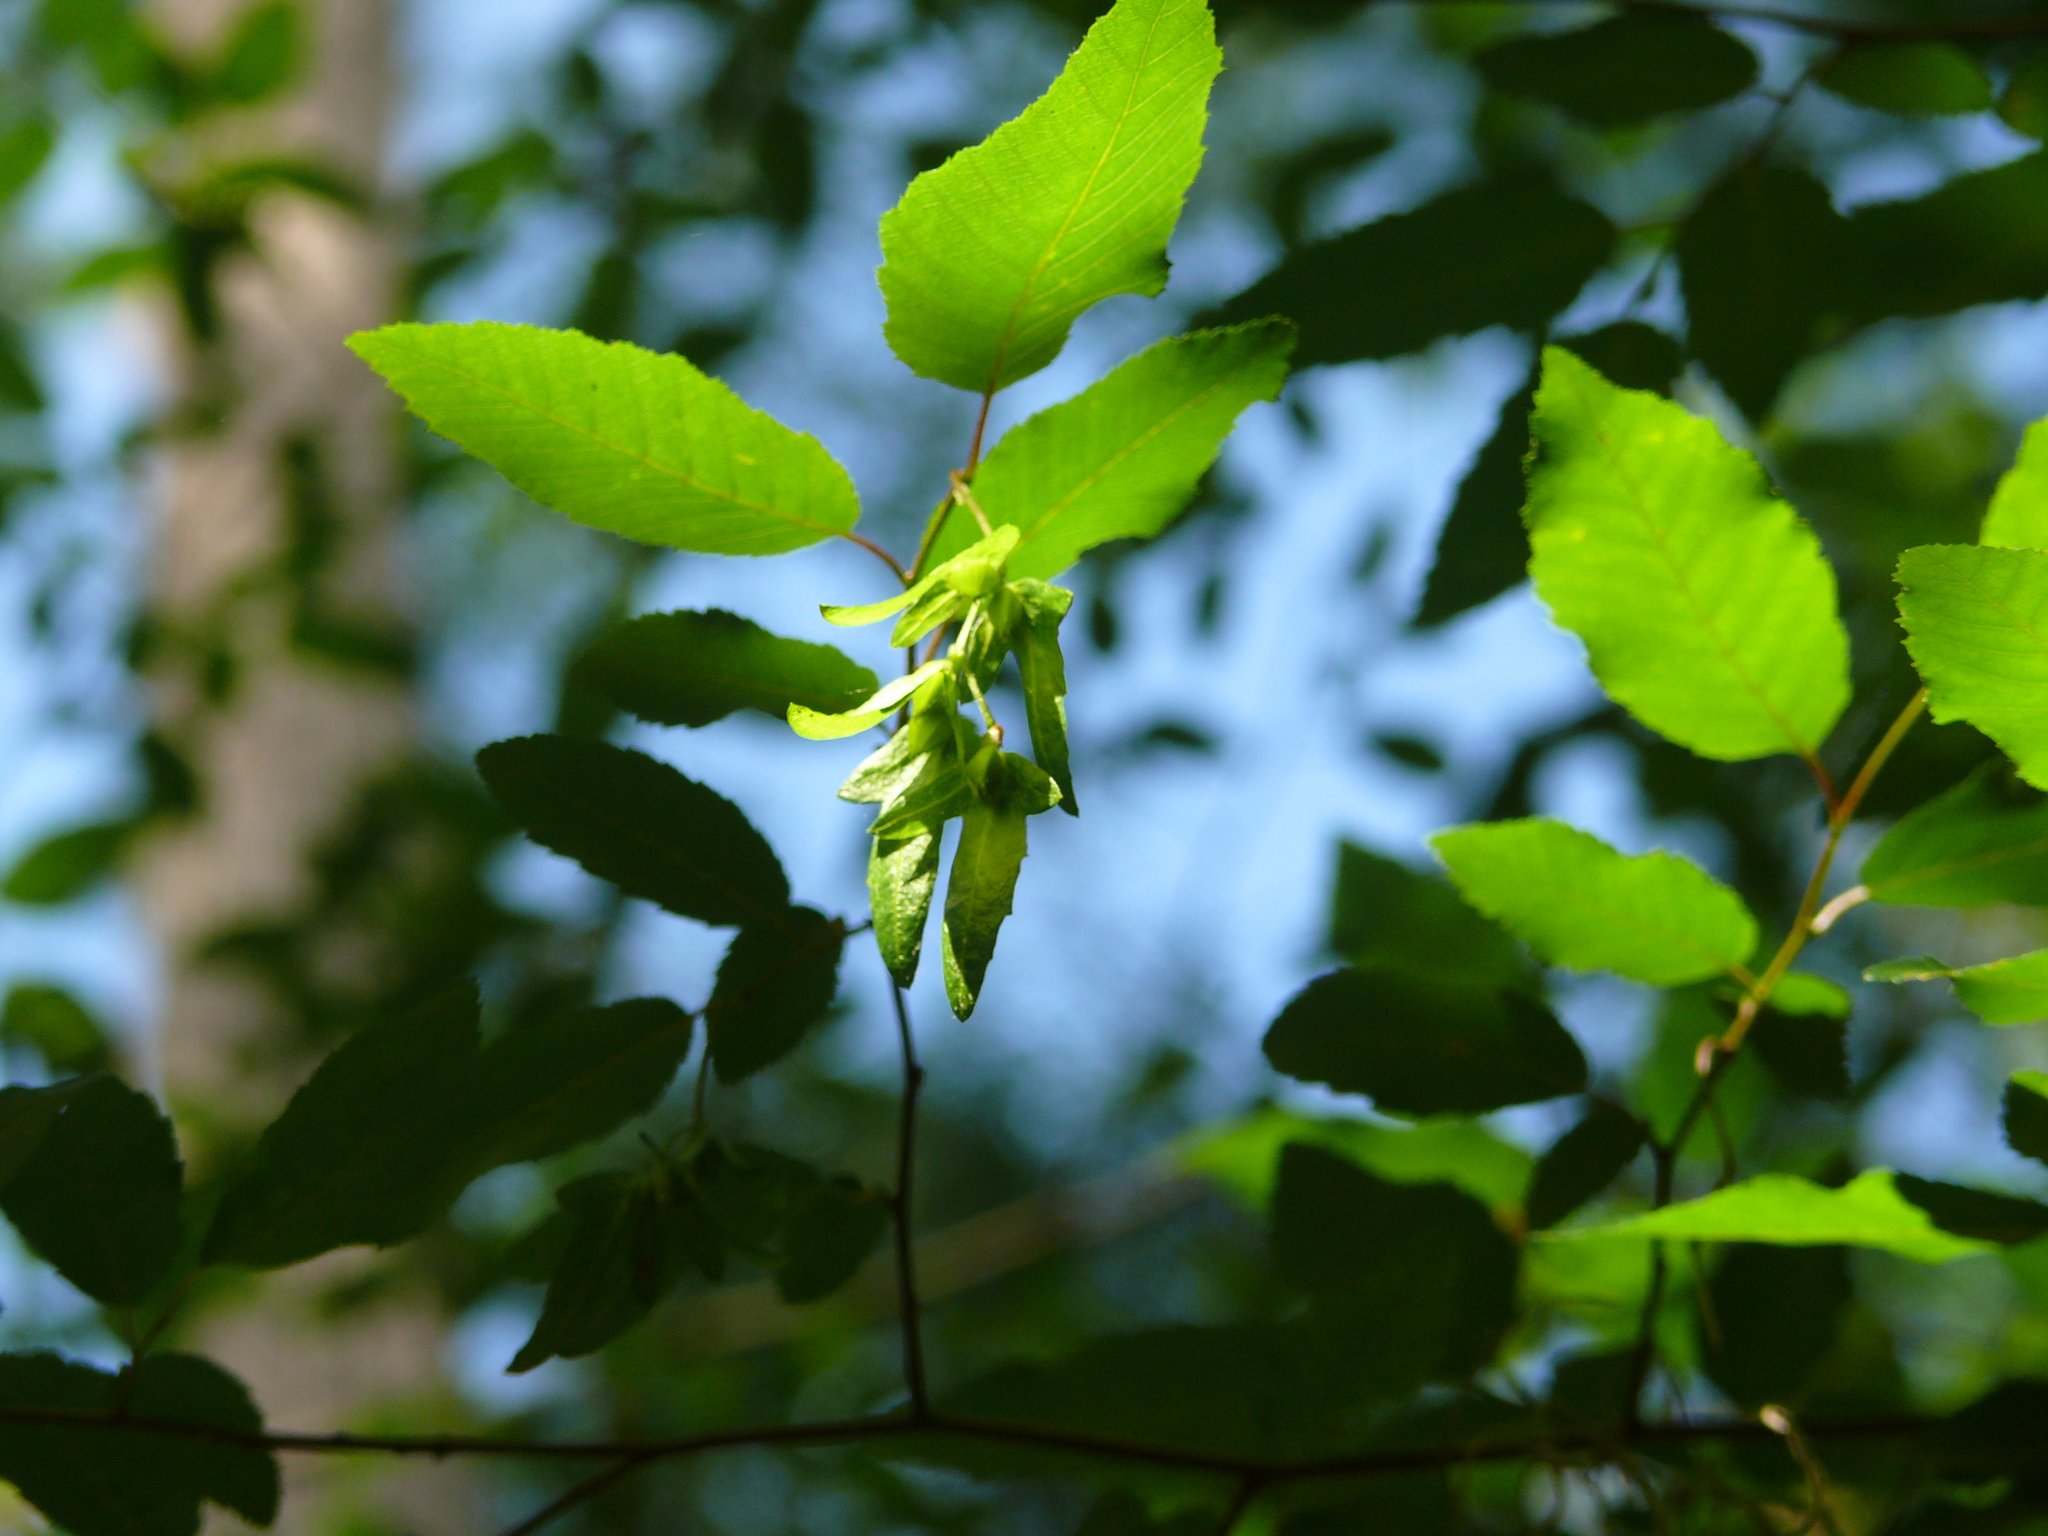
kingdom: Plantae
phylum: Tracheophyta
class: Magnoliopsida
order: Fagales
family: Betulaceae
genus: Carpinus
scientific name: Carpinus caroliniana
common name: American hornbeam
